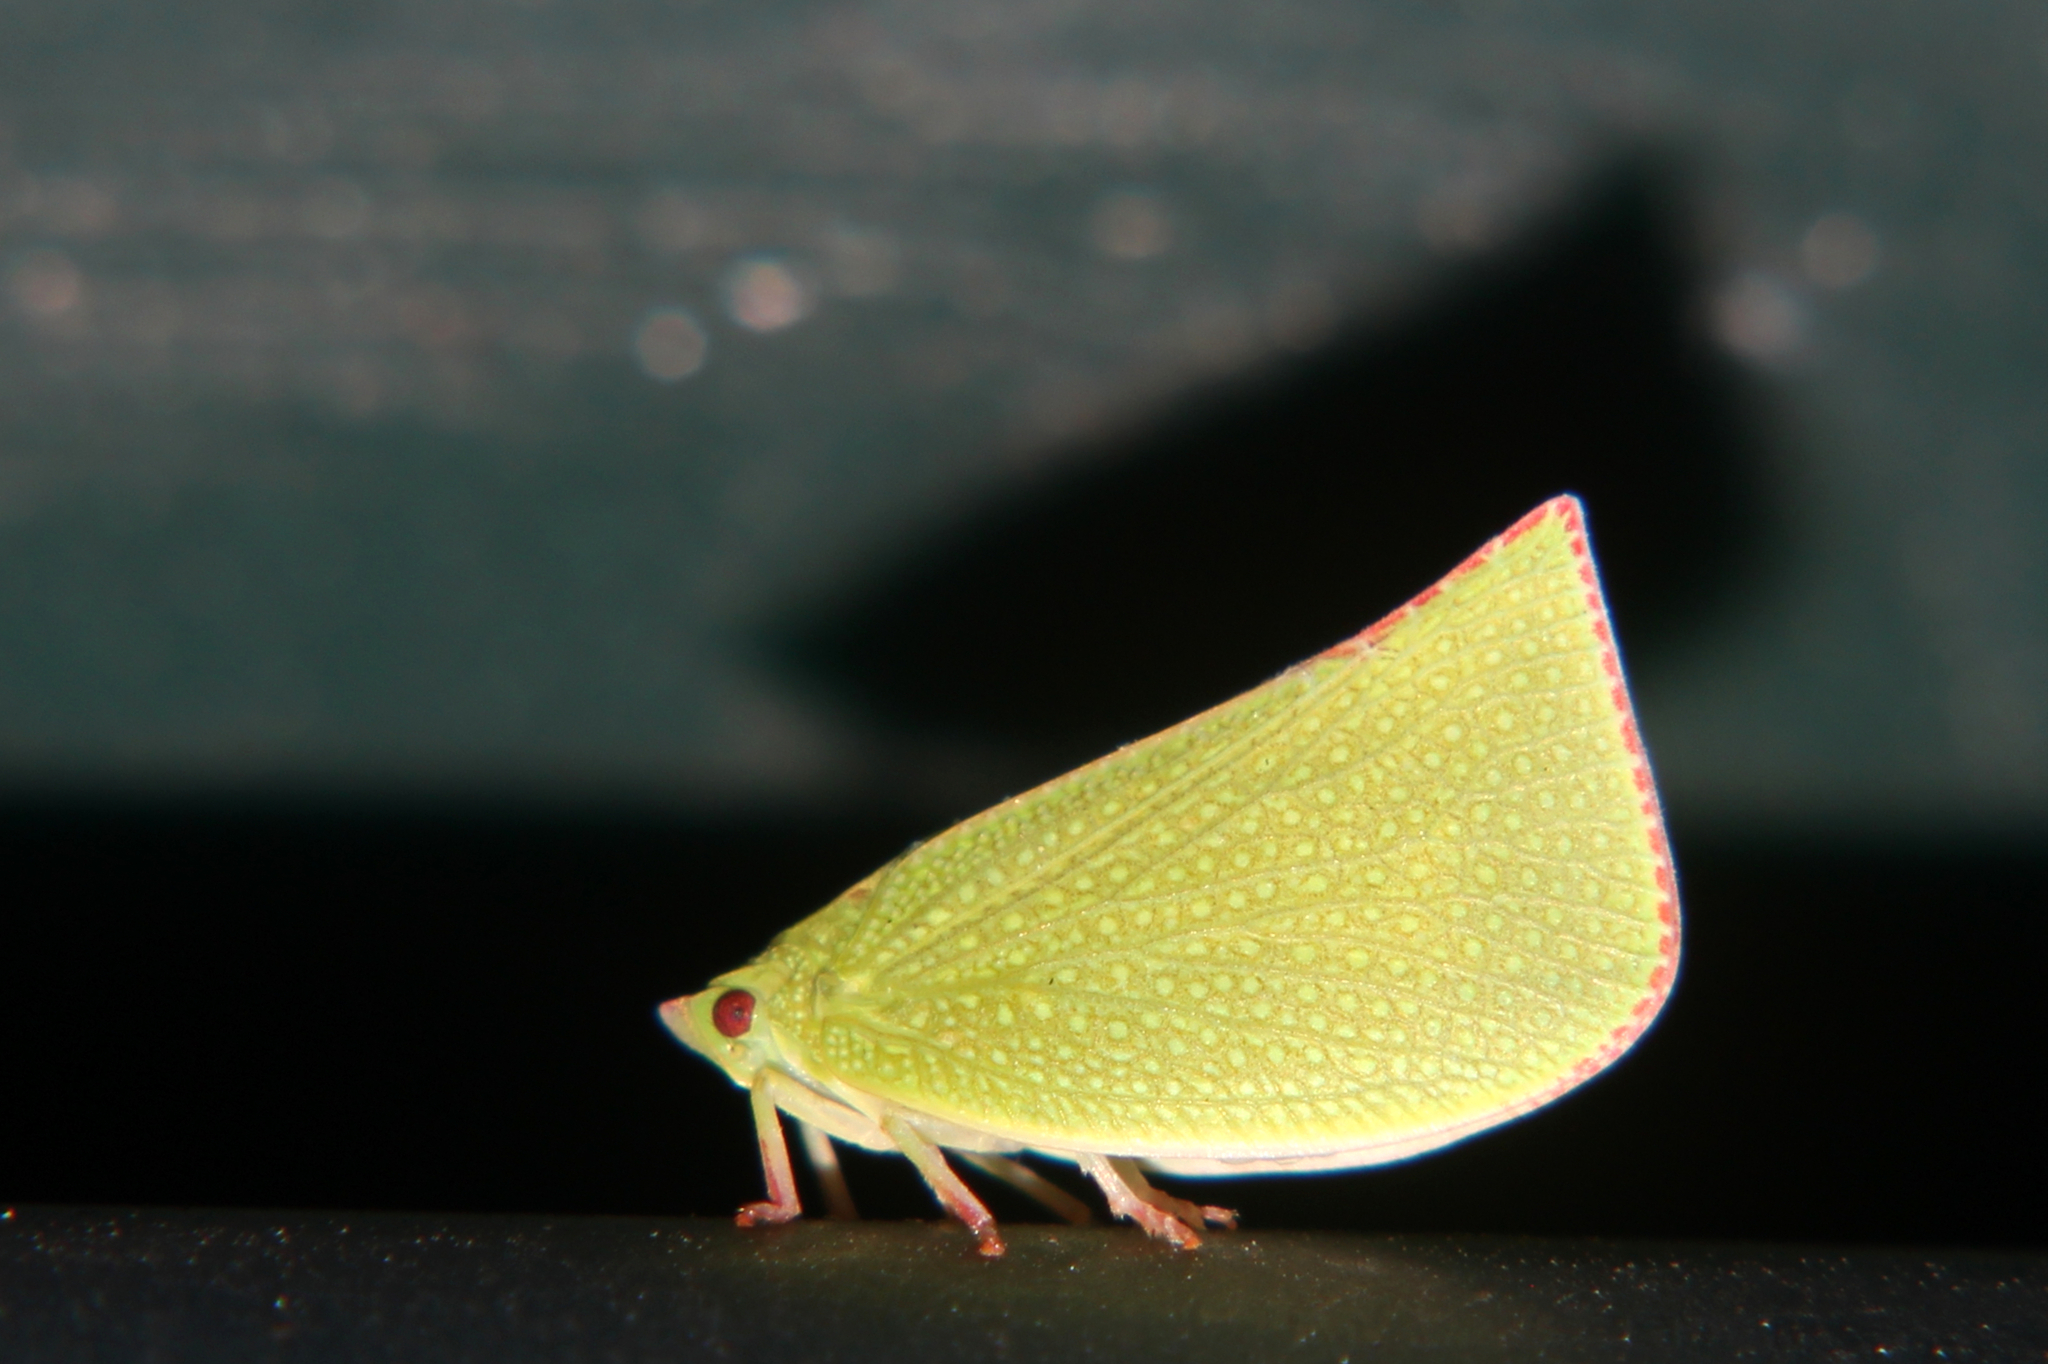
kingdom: Animalia
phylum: Arthropoda
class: Insecta
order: Hemiptera
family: Flatidae
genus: Siphanta
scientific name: Siphanta acuta
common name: Torpedo bug
